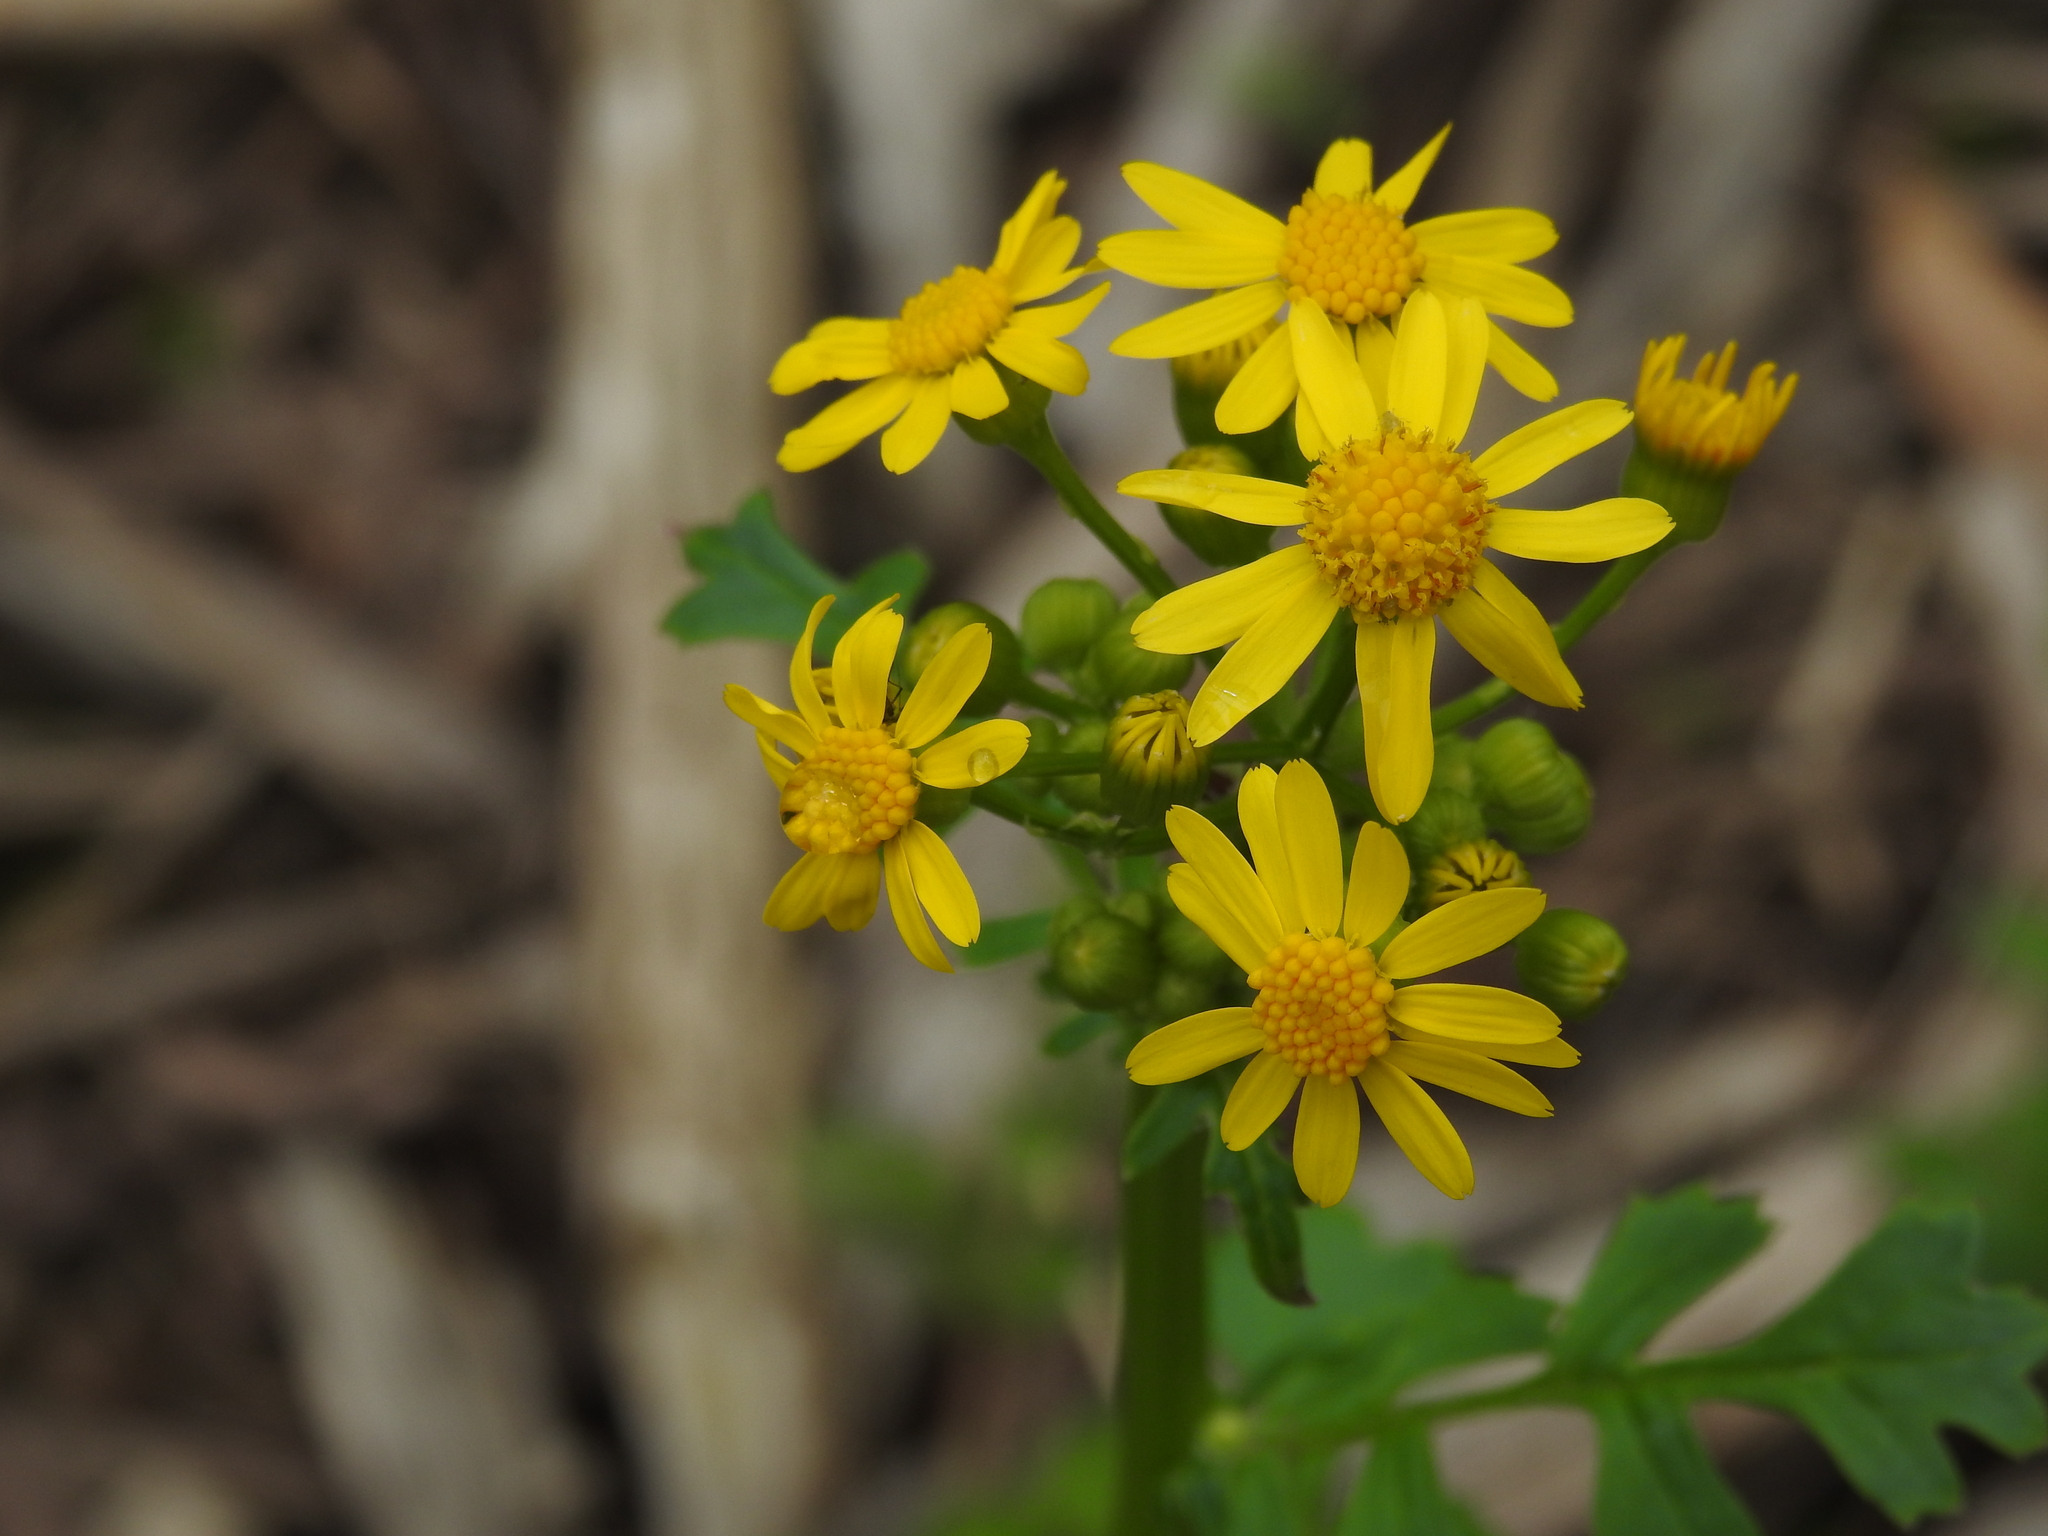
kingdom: Plantae
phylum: Tracheophyta
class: Magnoliopsida
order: Asterales
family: Asteraceae
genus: Packera
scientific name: Packera glabella
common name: Butterweed
